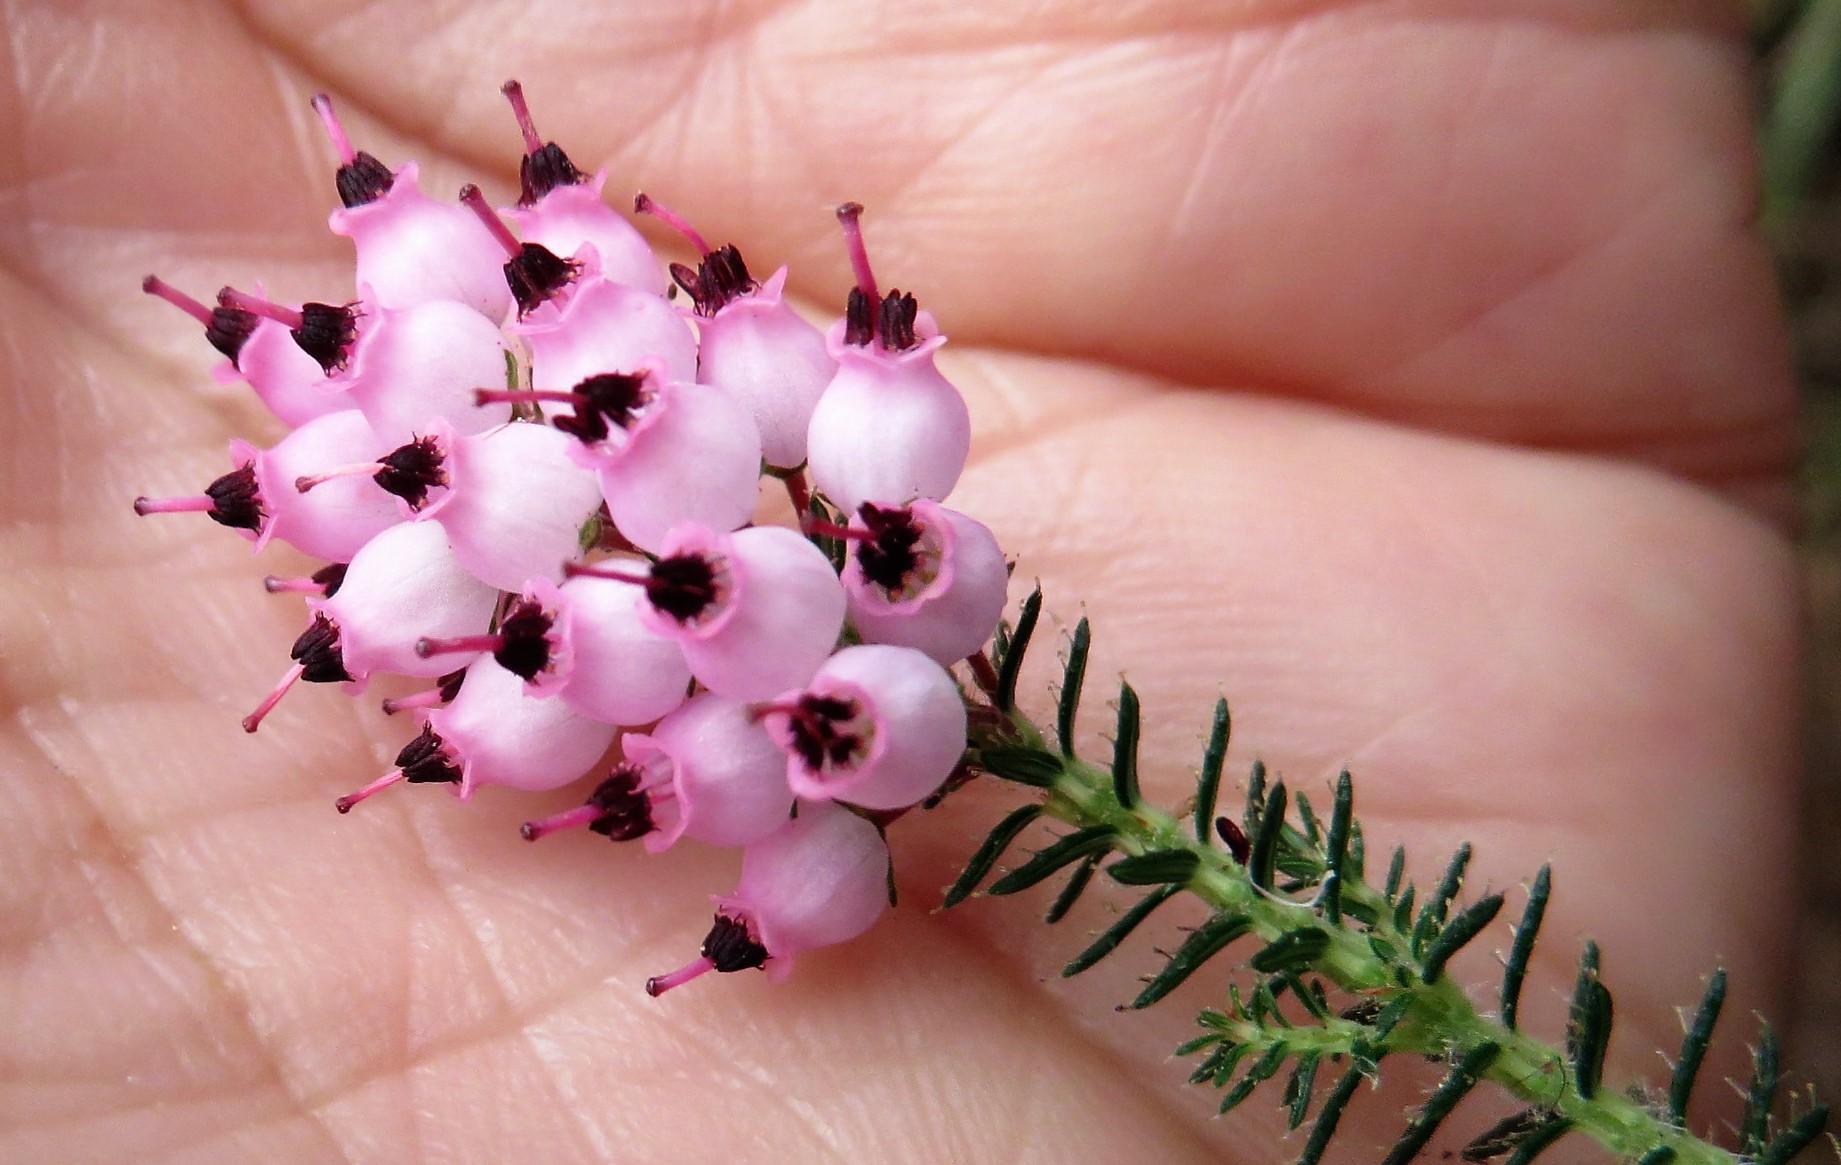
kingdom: Plantae
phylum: Tracheophyta
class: Magnoliopsida
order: Ericales
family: Ericaceae
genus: Erica
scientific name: Erica racemosa
